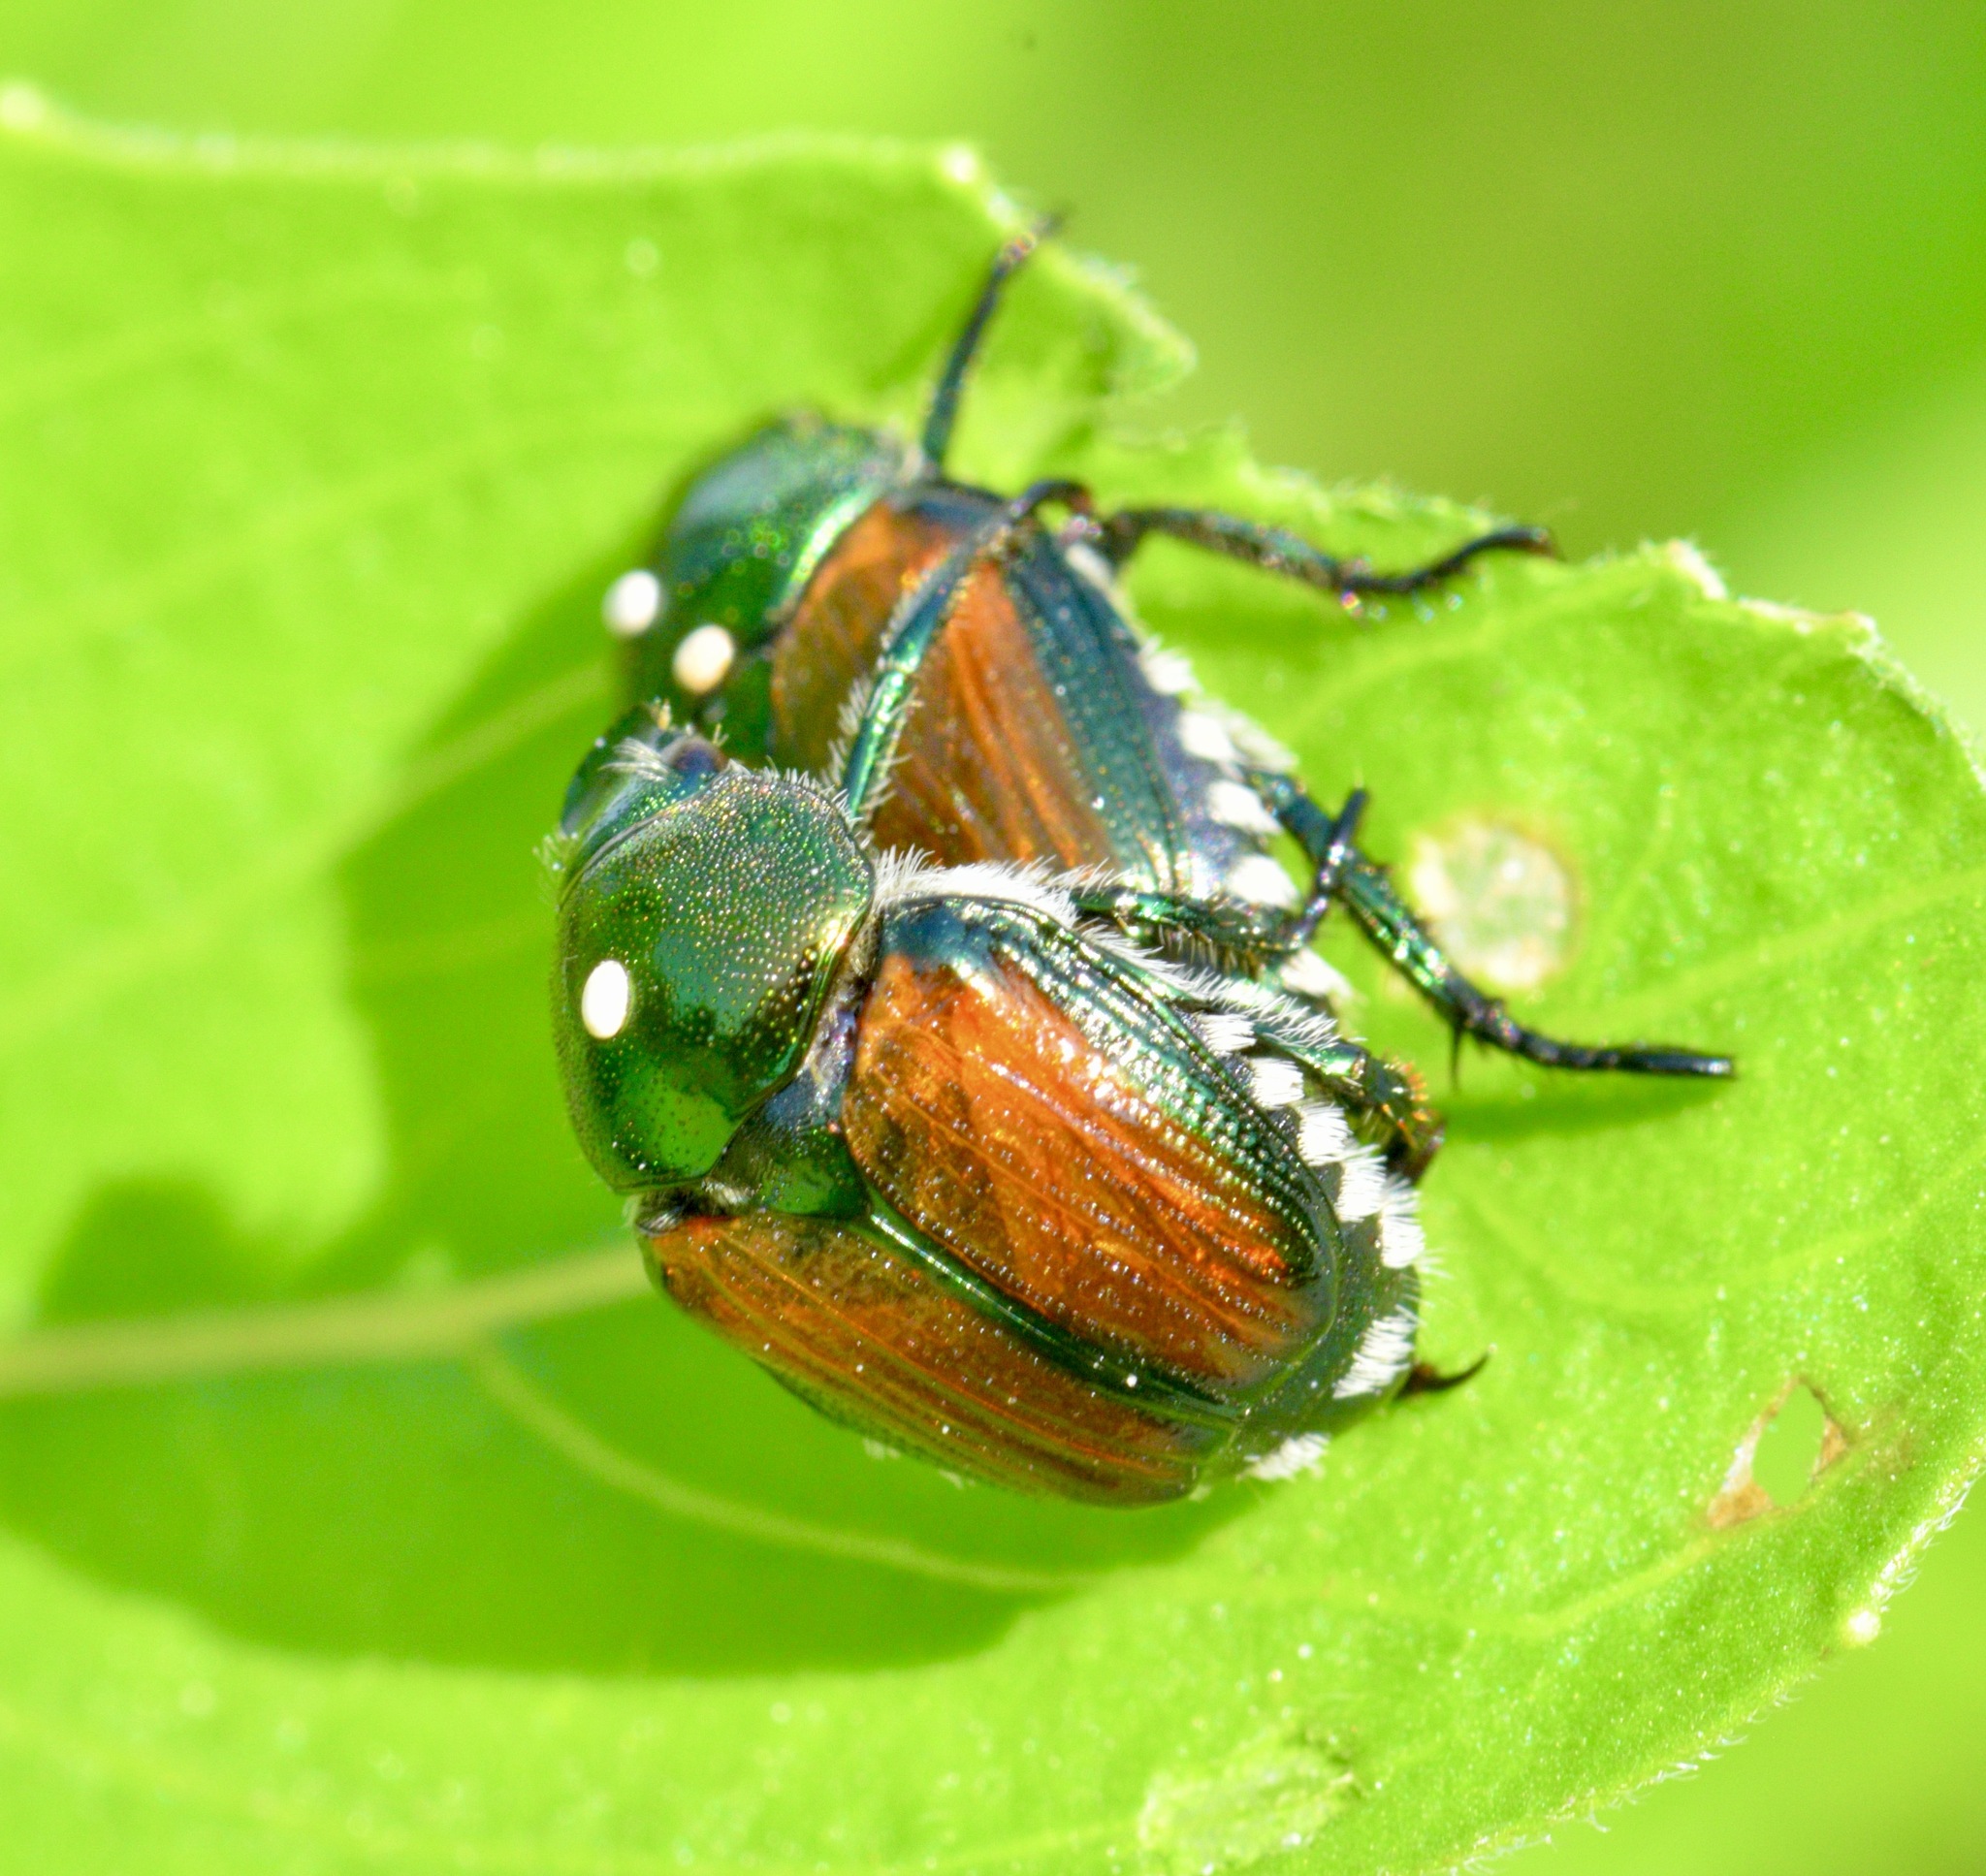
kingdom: Animalia
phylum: Arthropoda
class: Insecta
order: Coleoptera
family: Scarabaeidae
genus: Popillia
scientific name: Popillia japonica
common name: Japanese beetle
